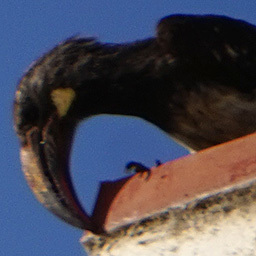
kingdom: Animalia
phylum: Chordata
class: Aves
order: Bucerotiformes
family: Bucerotidae
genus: Lophoceros
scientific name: Lophoceros hemprichii
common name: Hemprich's hornbill
